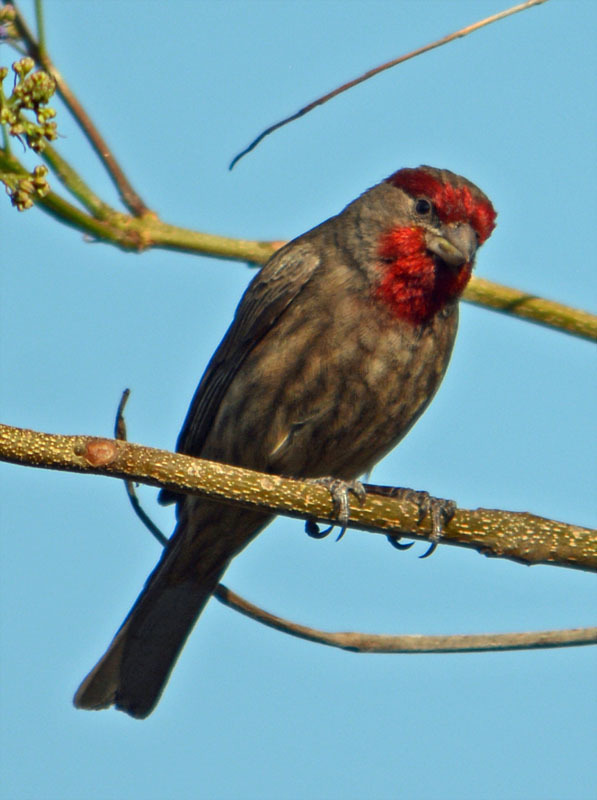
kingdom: Animalia
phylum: Chordata
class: Aves
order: Passeriformes
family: Fringillidae
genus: Haemorhous
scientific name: Haemorhous mexicanus
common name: House finch
